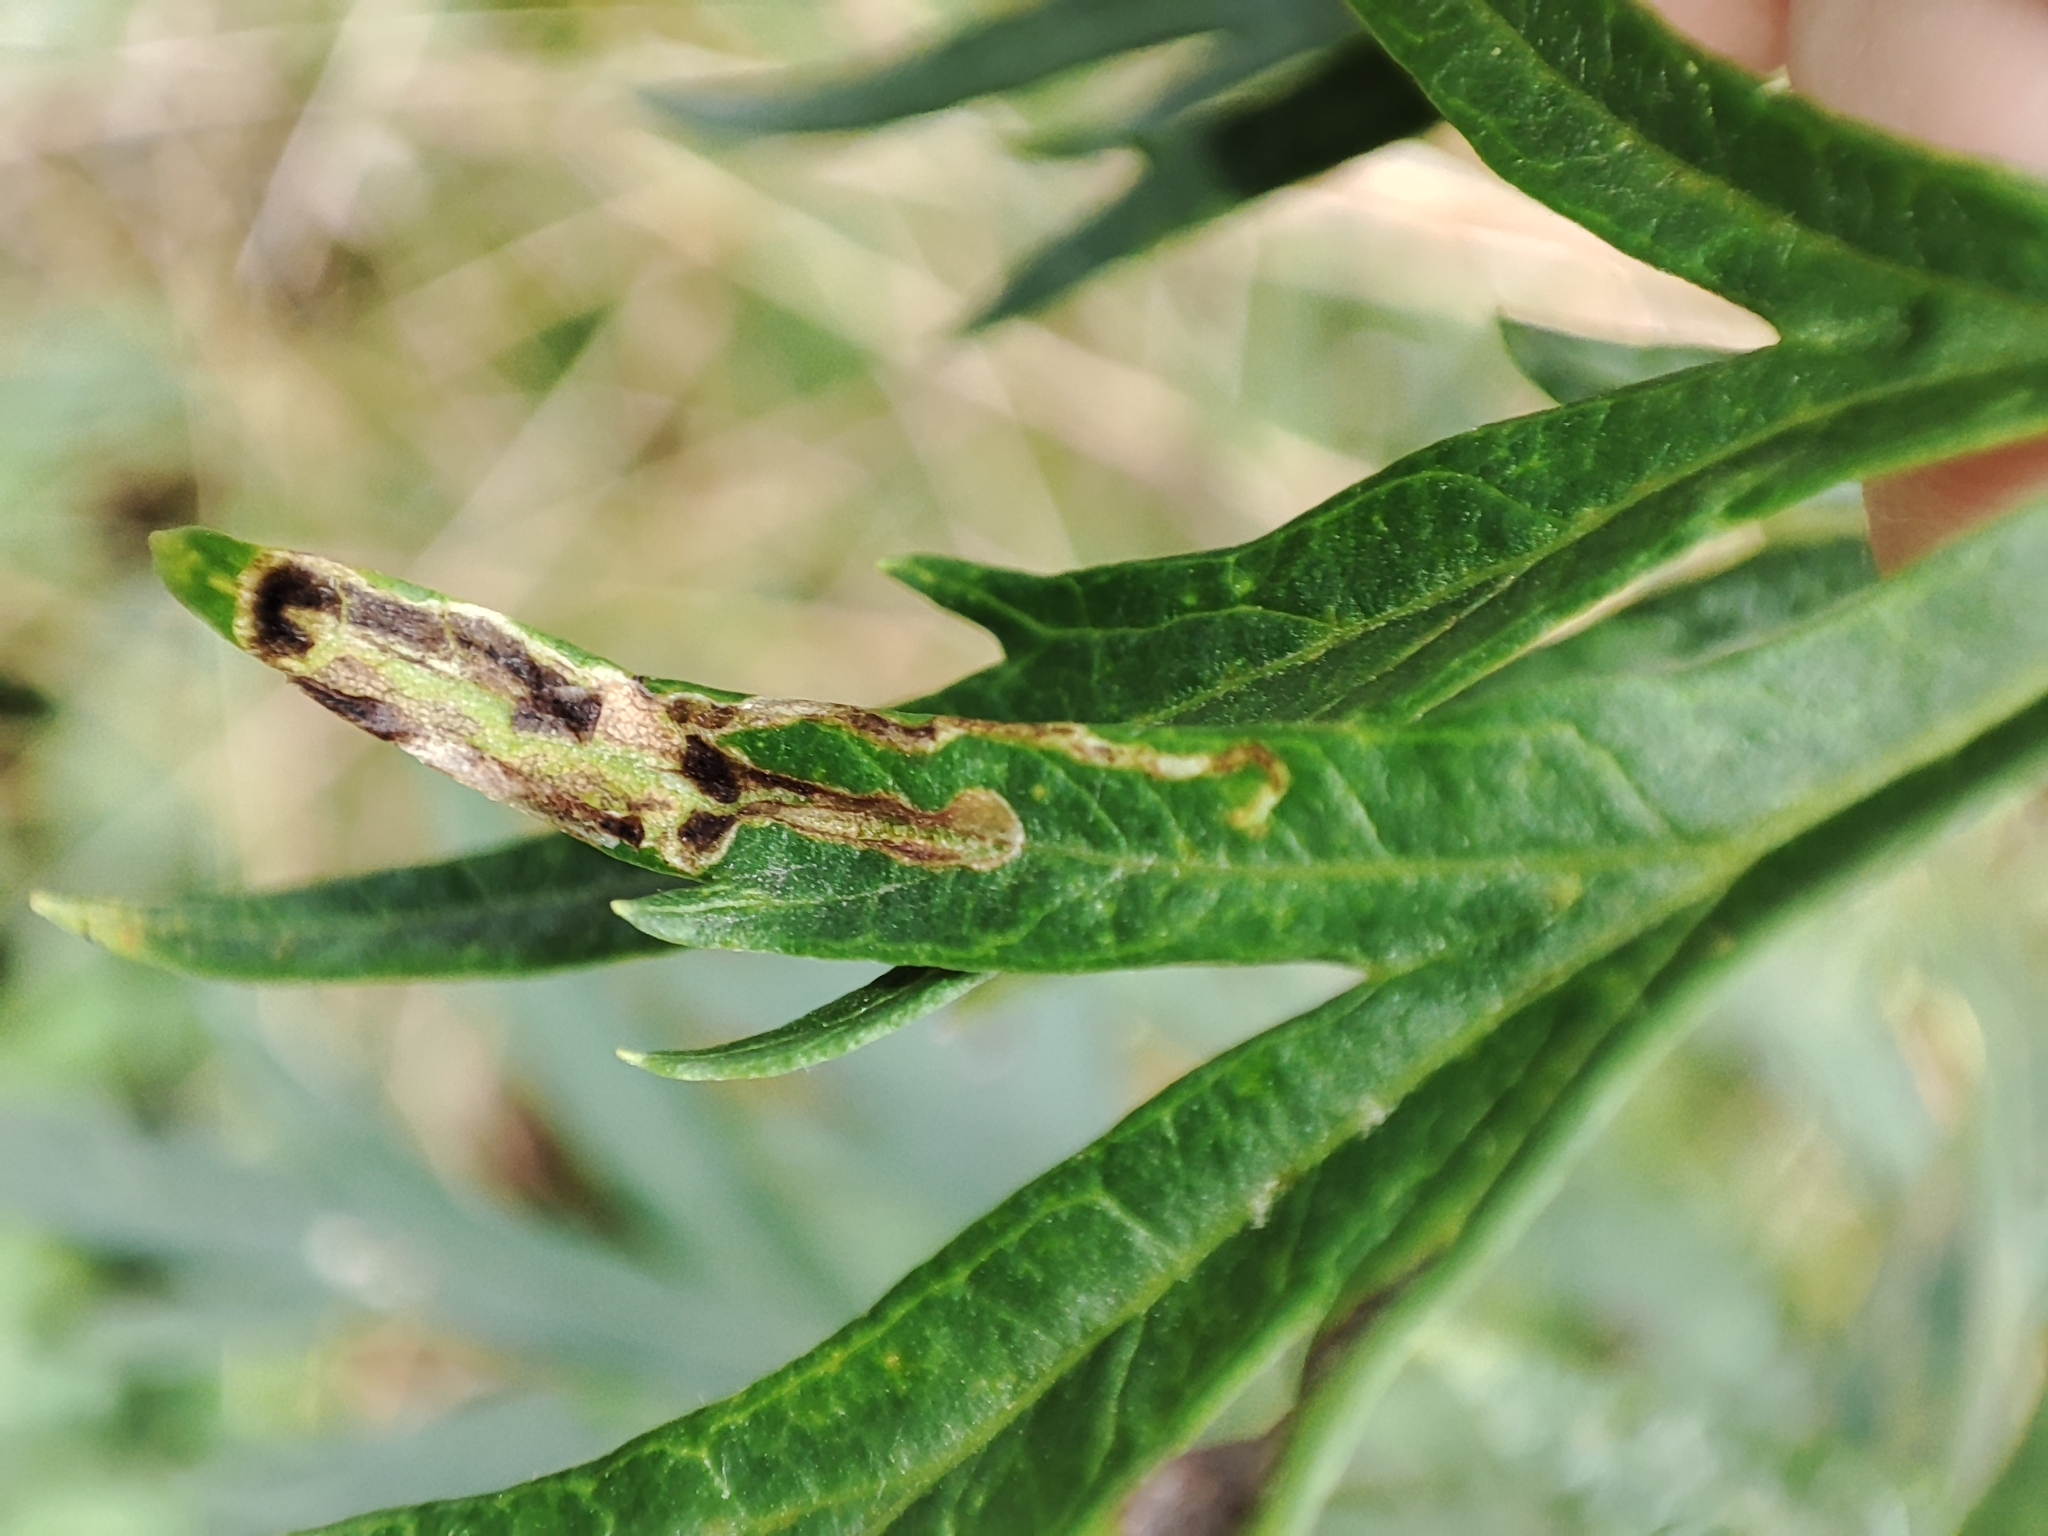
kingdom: Plantae
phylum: Tracheophyta
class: Magnoliopsida
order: Asterales
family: Asteraceae
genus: Artemisia
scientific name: Artemisia vulgaris
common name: Mugwort
